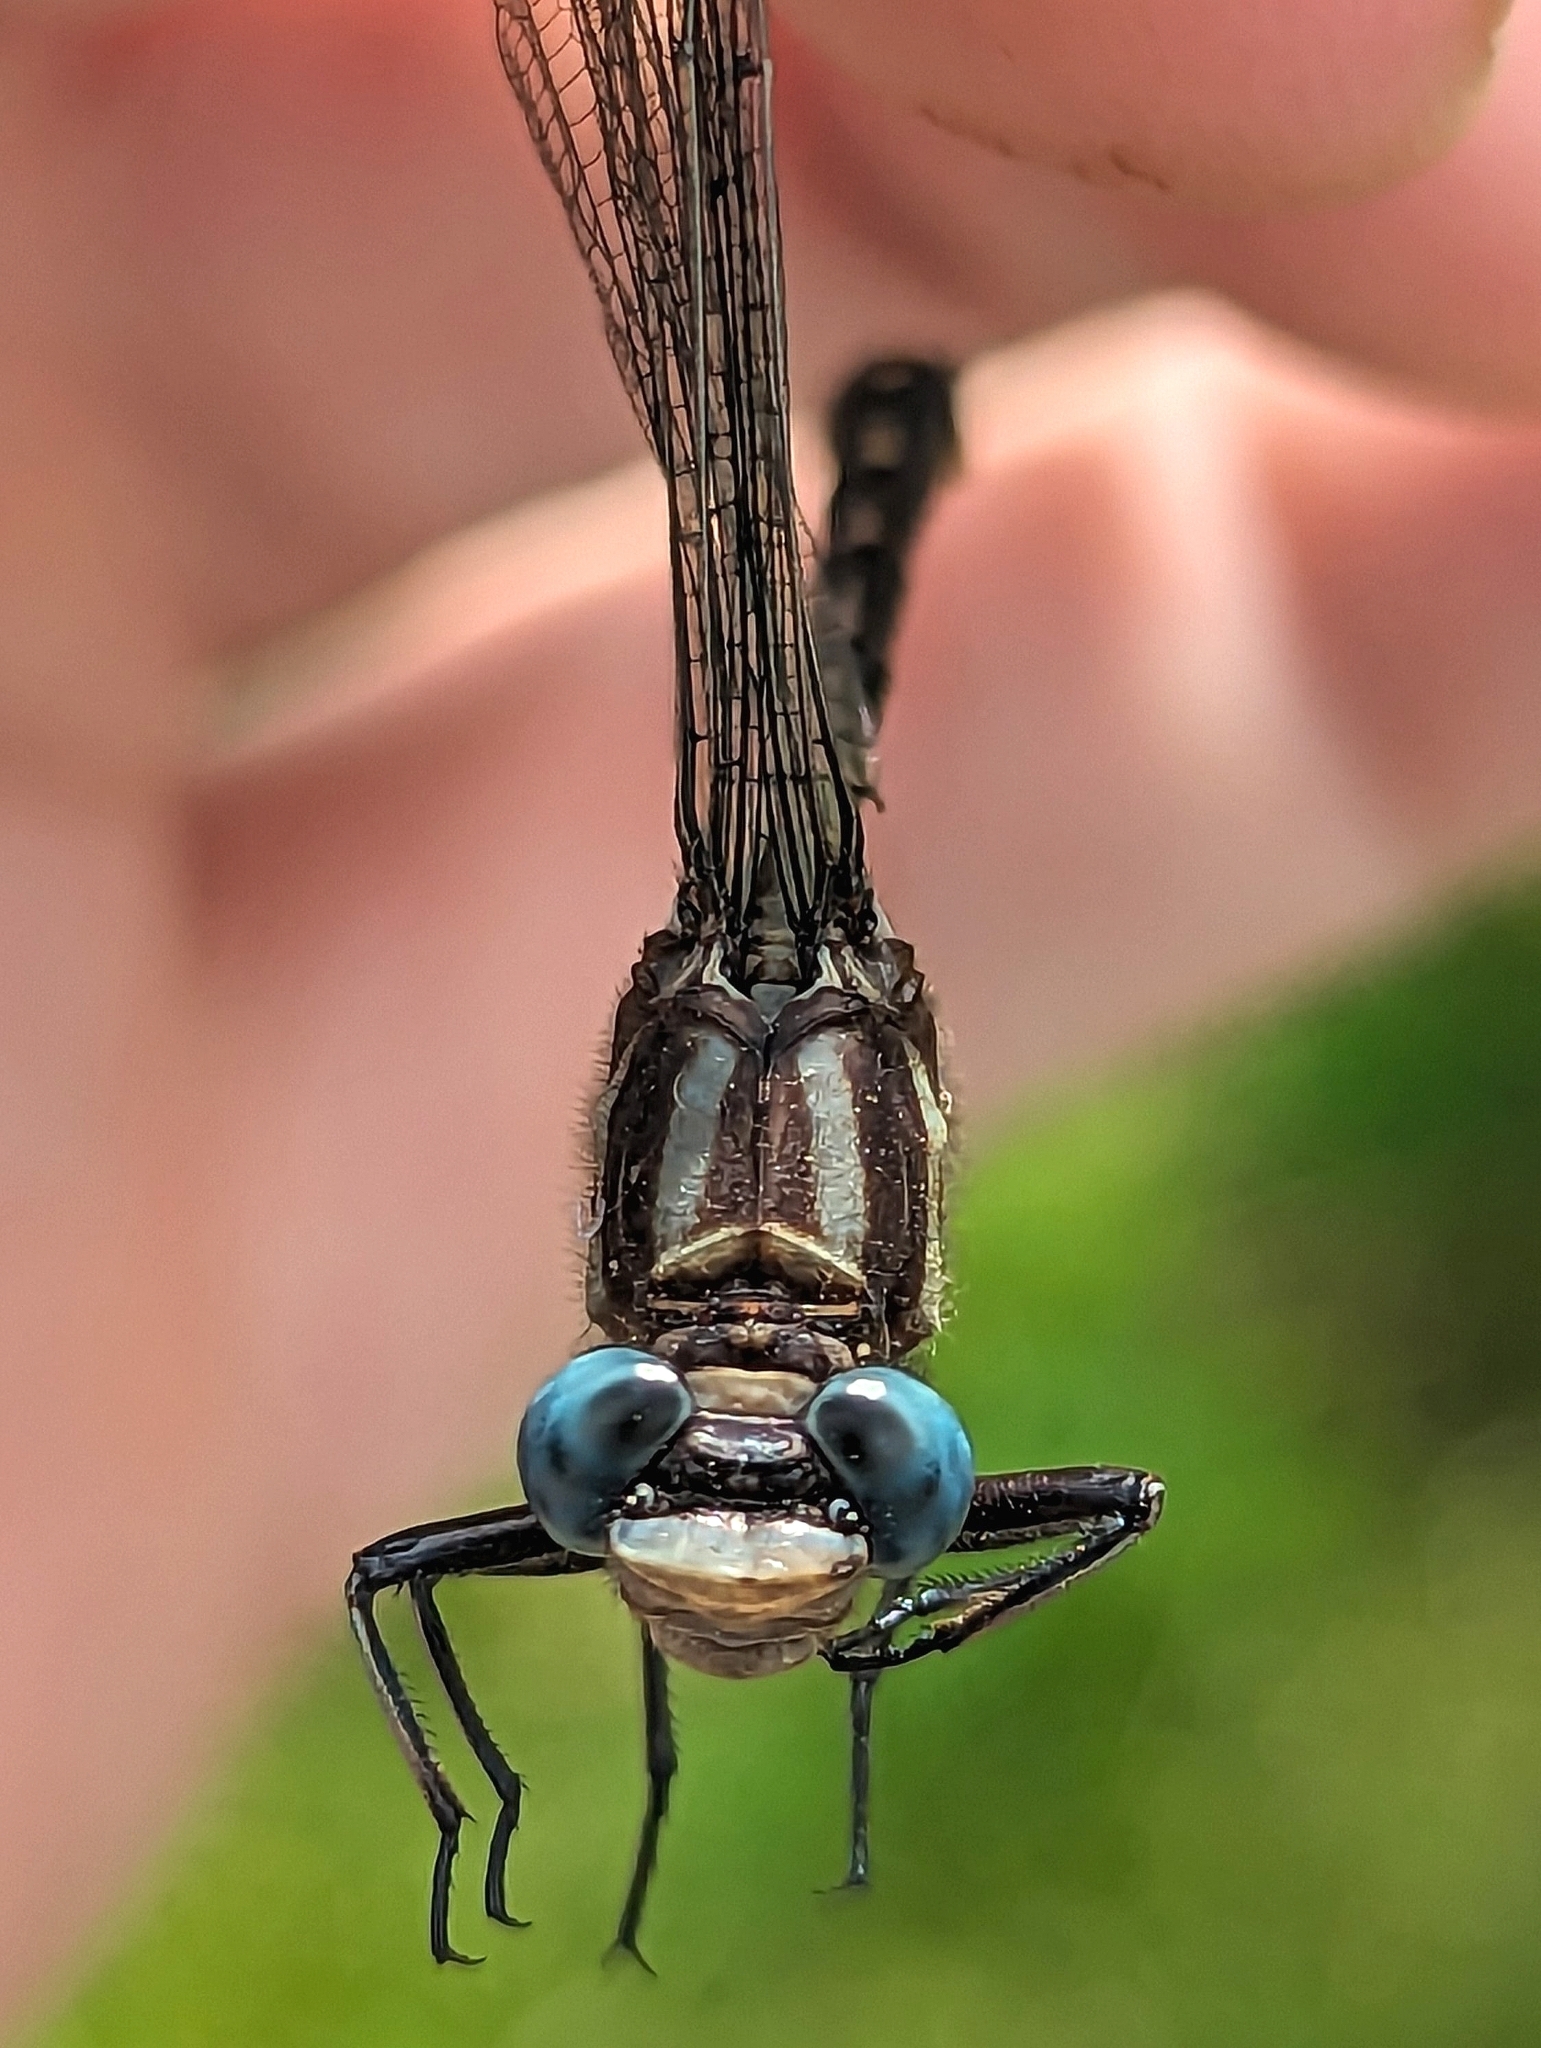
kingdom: Animalia
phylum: Arthropoda
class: Insecta
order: Odonata
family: Gomphidae
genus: Phanogomphus
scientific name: Phanogomphus exilis
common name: Lancet clubtail
